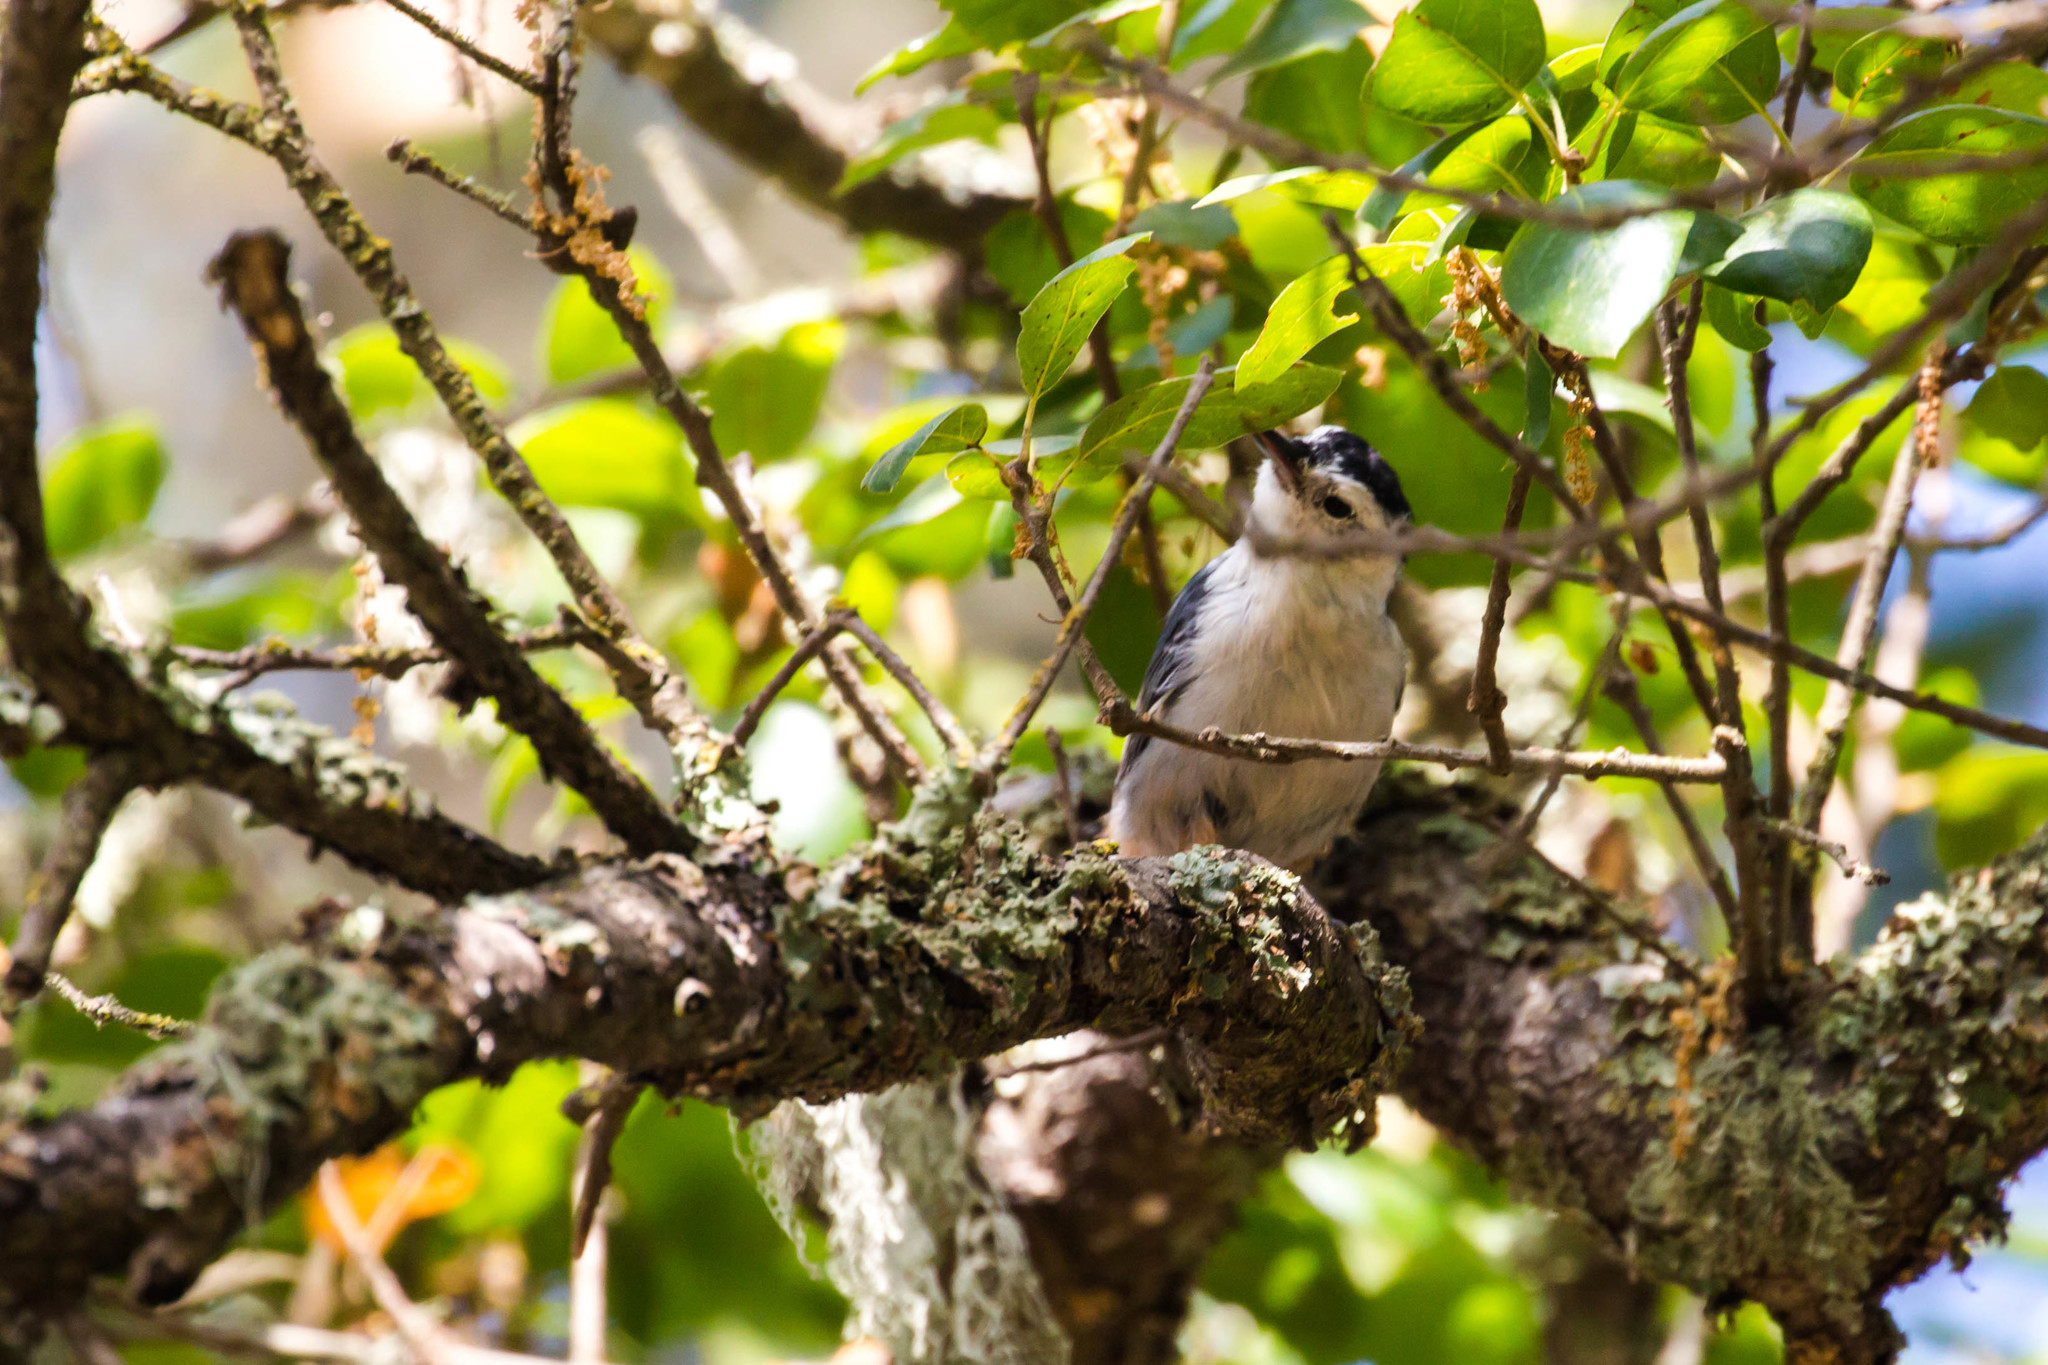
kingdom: Animalia
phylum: Chordata
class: Aves
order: Passeriformes
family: Sittidae
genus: Sitta
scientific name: Sitta carolinensis
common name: White-breasted nuthatch
